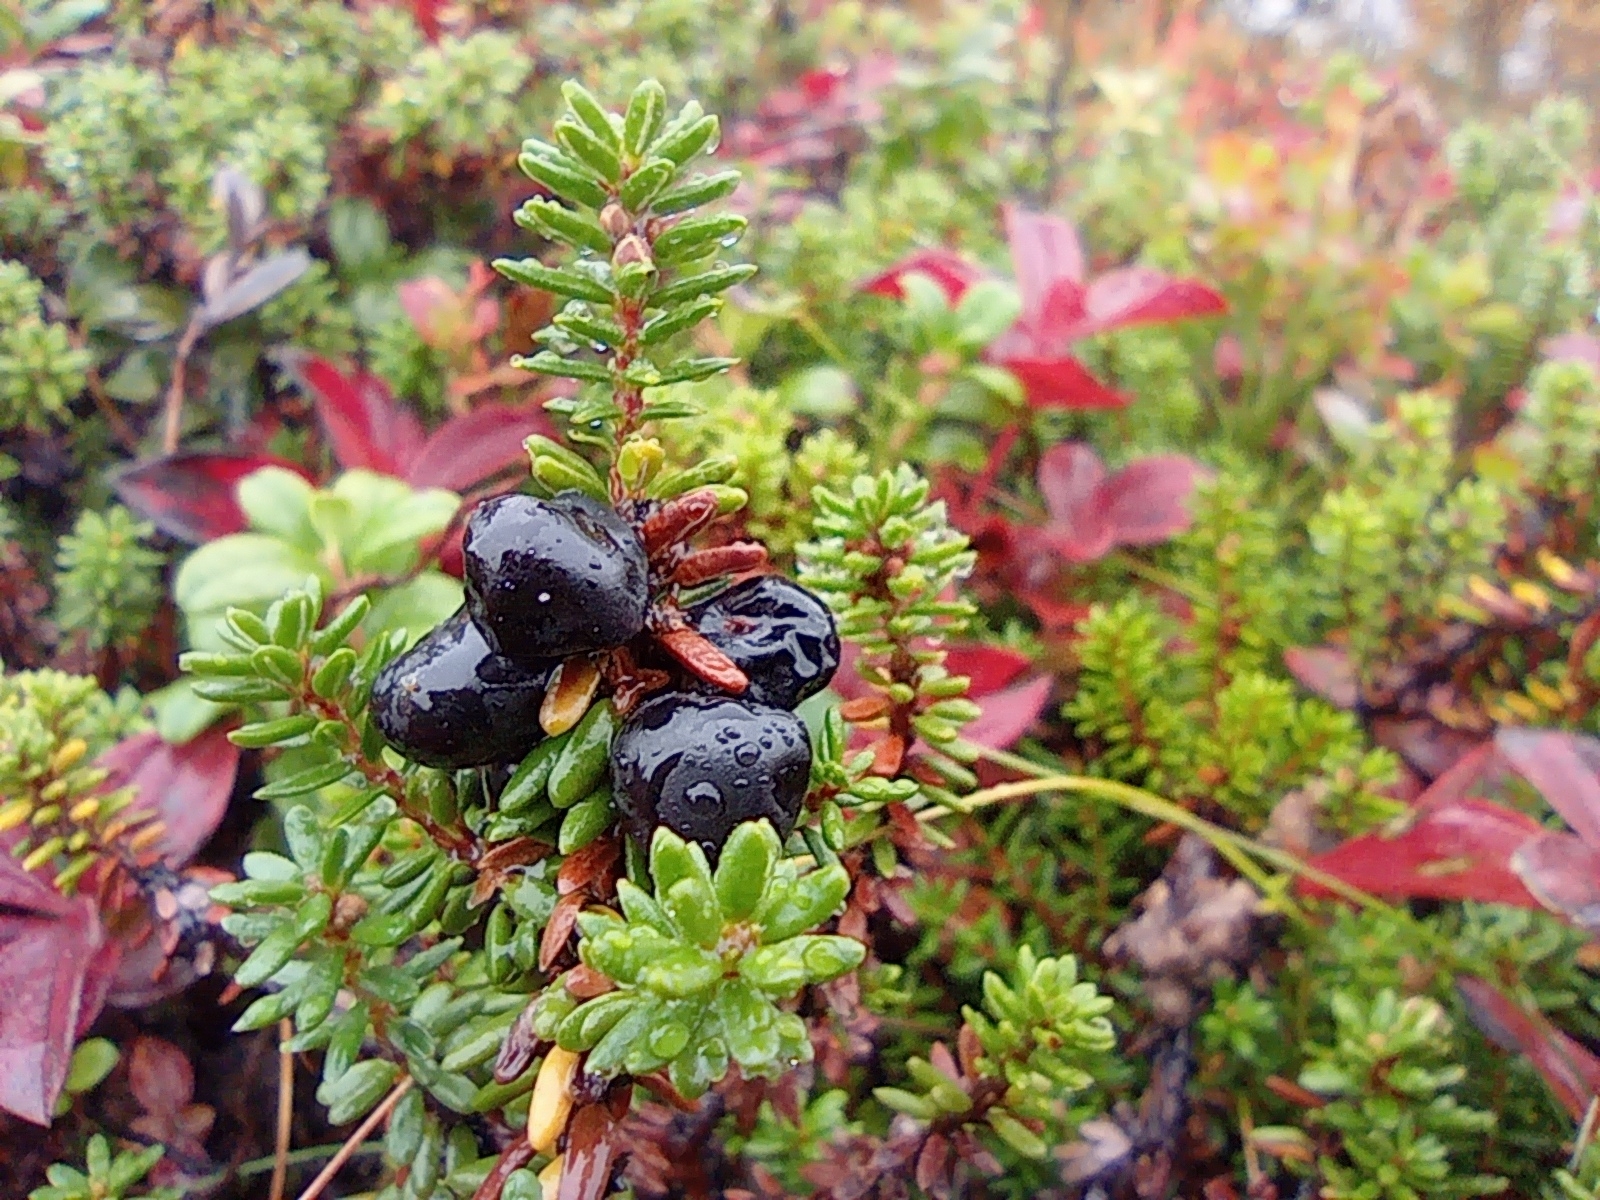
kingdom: Plantae
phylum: Tracheophyta
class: Magnoliopsida
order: Ericales
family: Ericaceae
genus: Empetrum
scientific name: Empetrum nigrum
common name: Black crowberry
